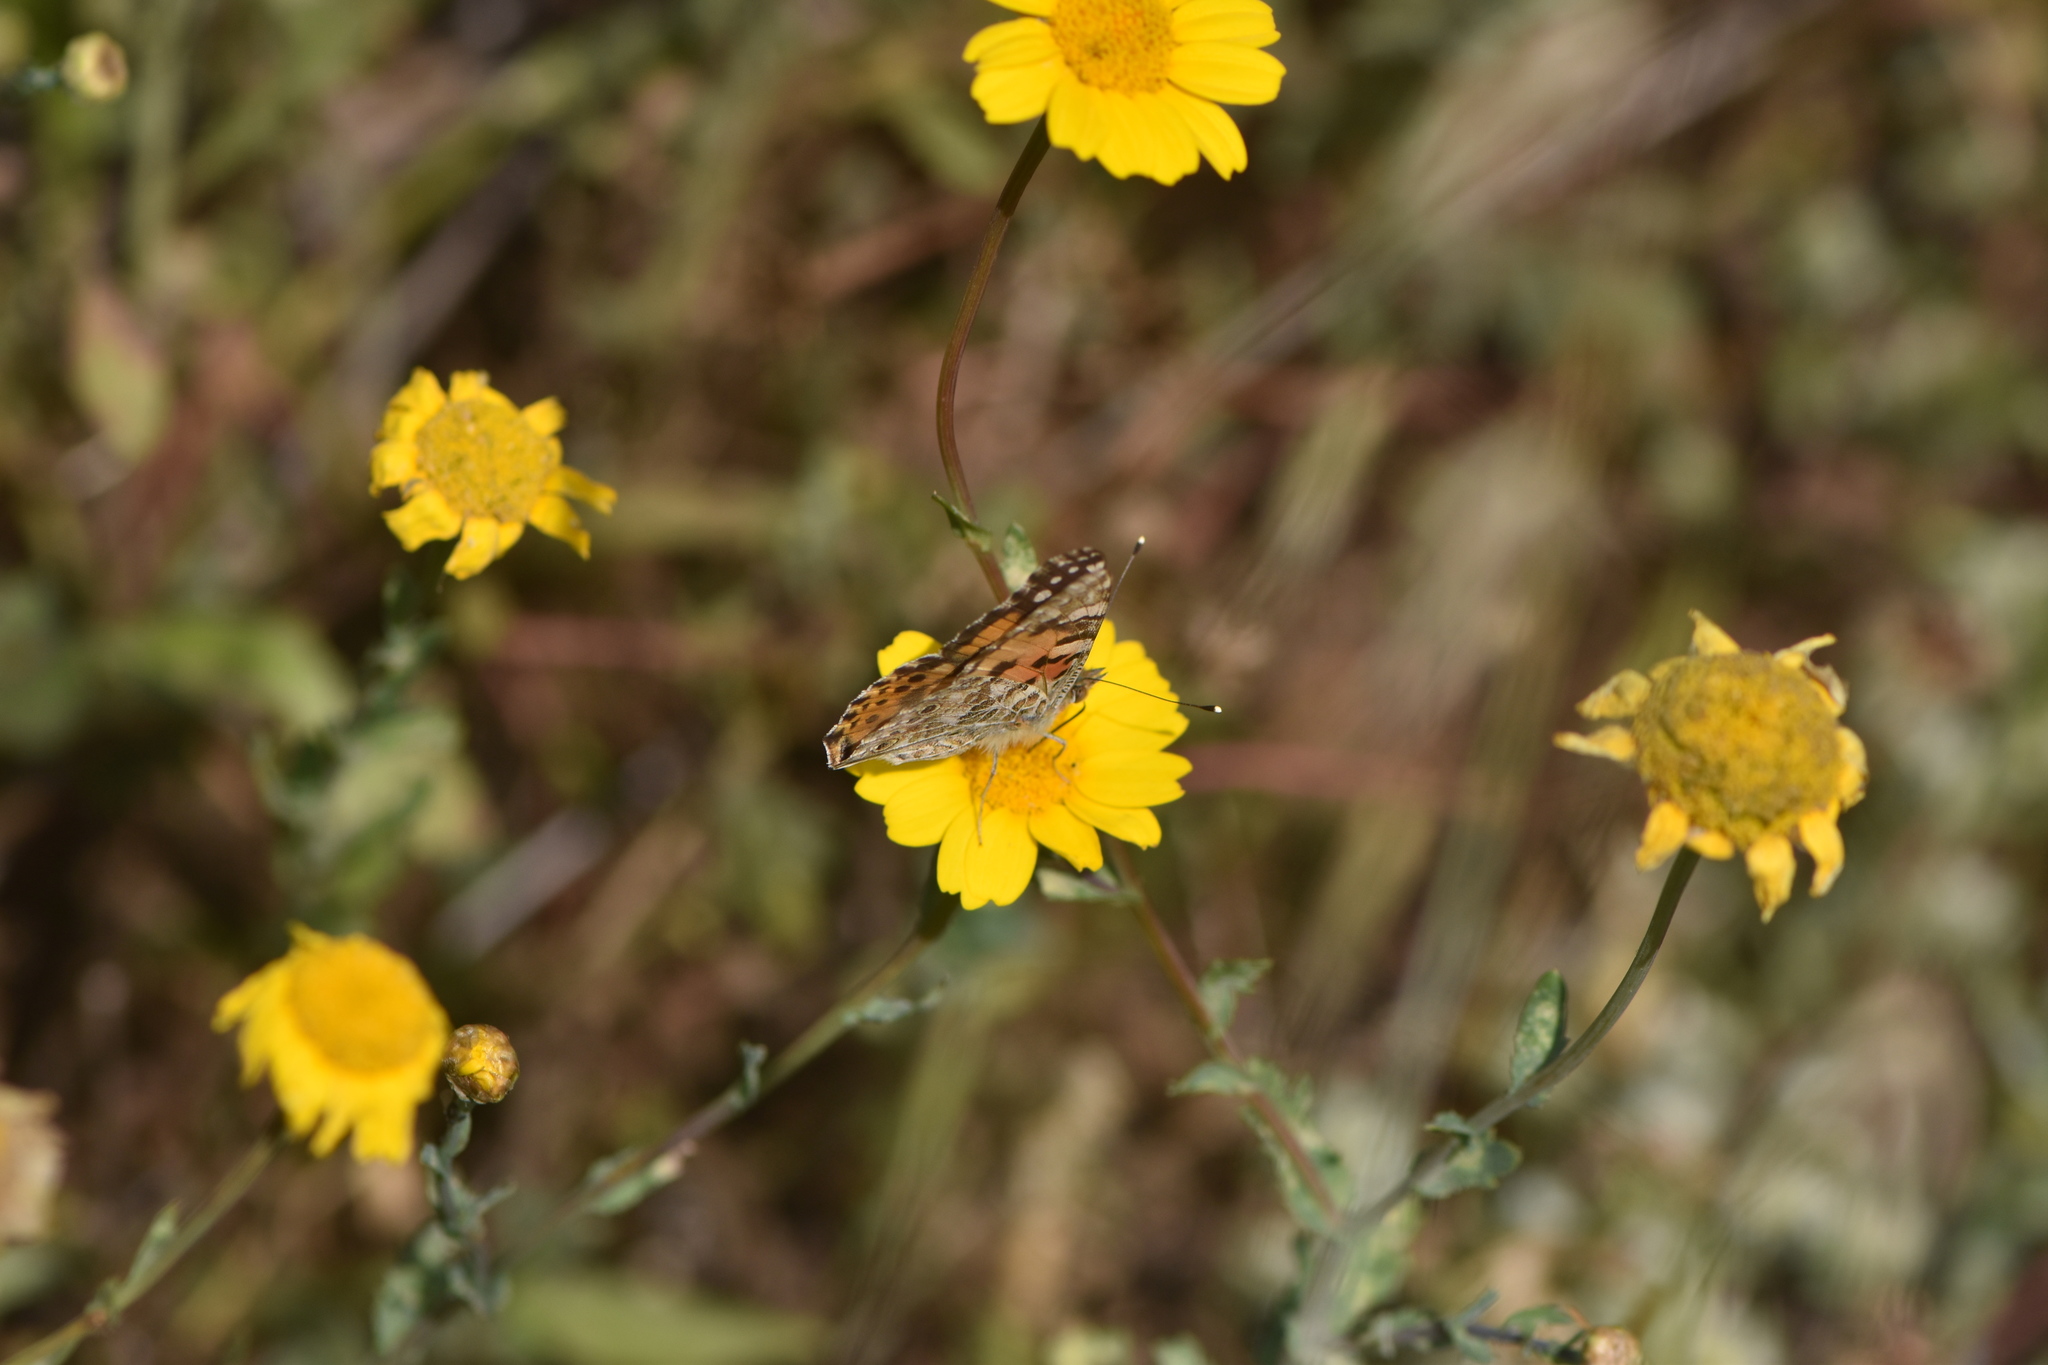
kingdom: Animalia
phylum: Arthropoda
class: Insecta
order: Lepidoptera
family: Nymphalidae
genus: Vanessa
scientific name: Vanessa cardui
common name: Painted lady
